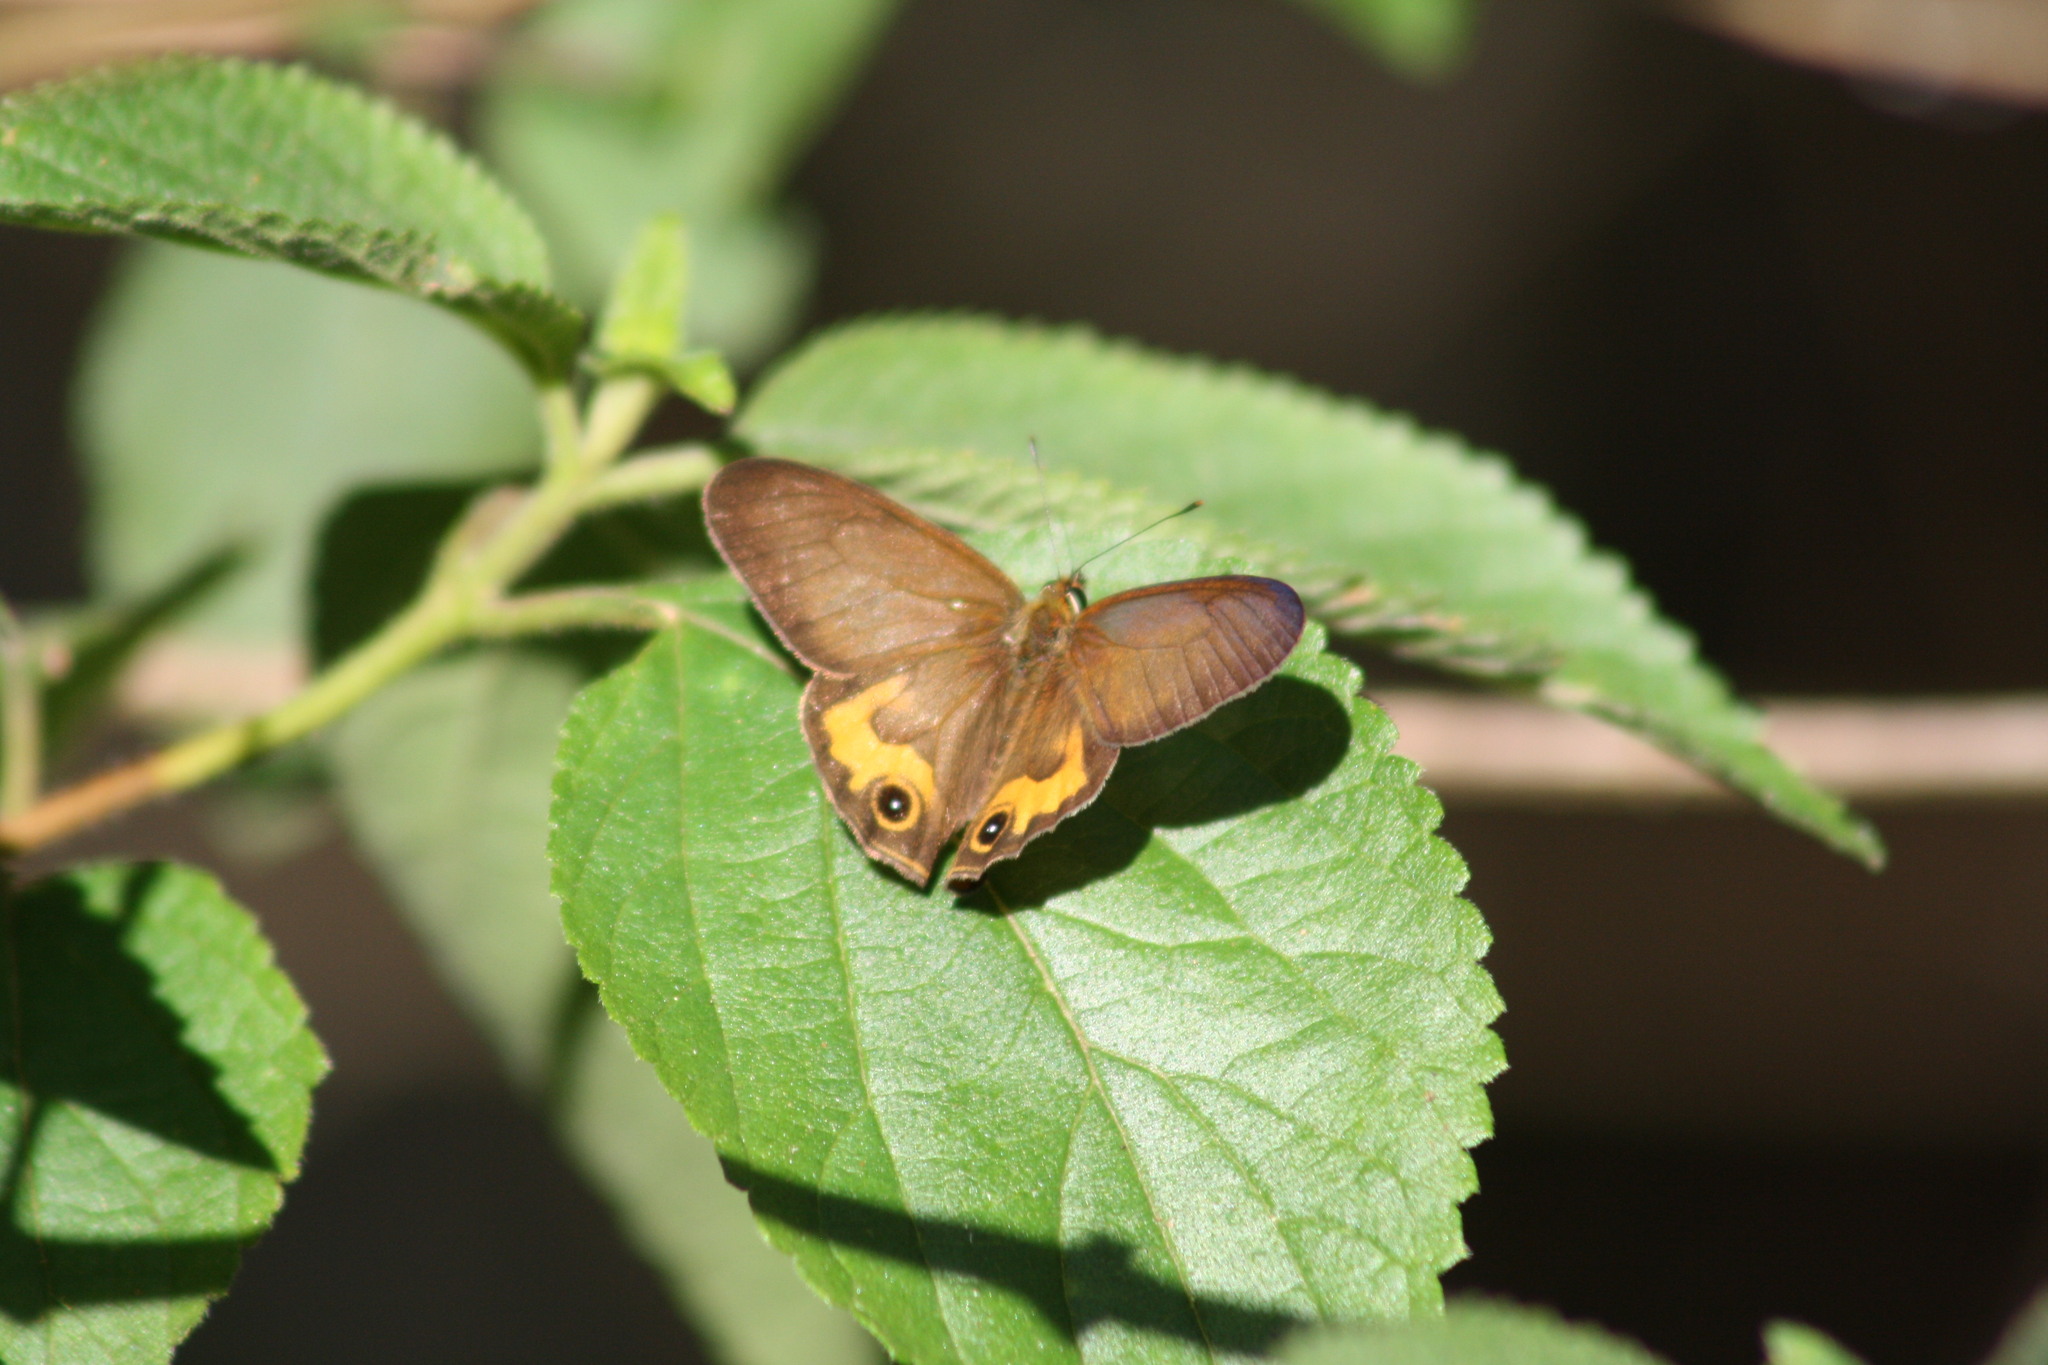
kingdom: Animalia
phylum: Arthropoda
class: Insecta
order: Lepidoptera
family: Nymphalidae
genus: Hypocysta
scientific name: Hypocysta metirius
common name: Brown ringlet
